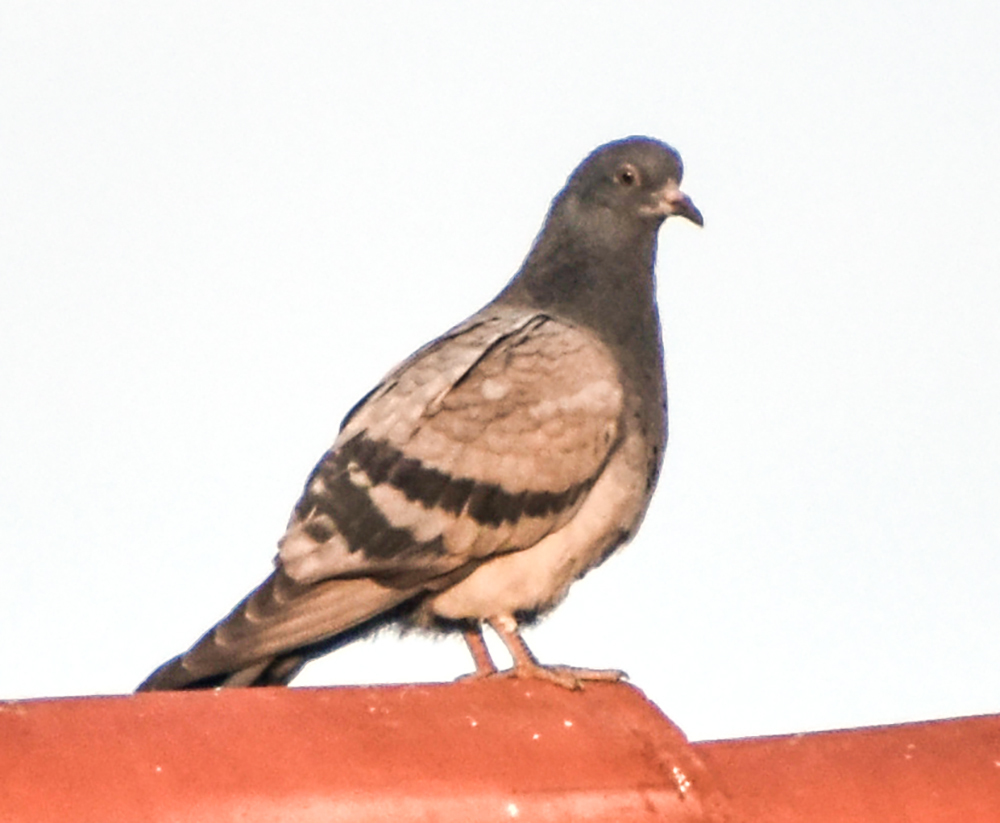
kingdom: Animalia
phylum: Chordata
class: Aves
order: Columbiformes
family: Columbidae
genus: Columba
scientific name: Columba livia
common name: Rock pigeon
